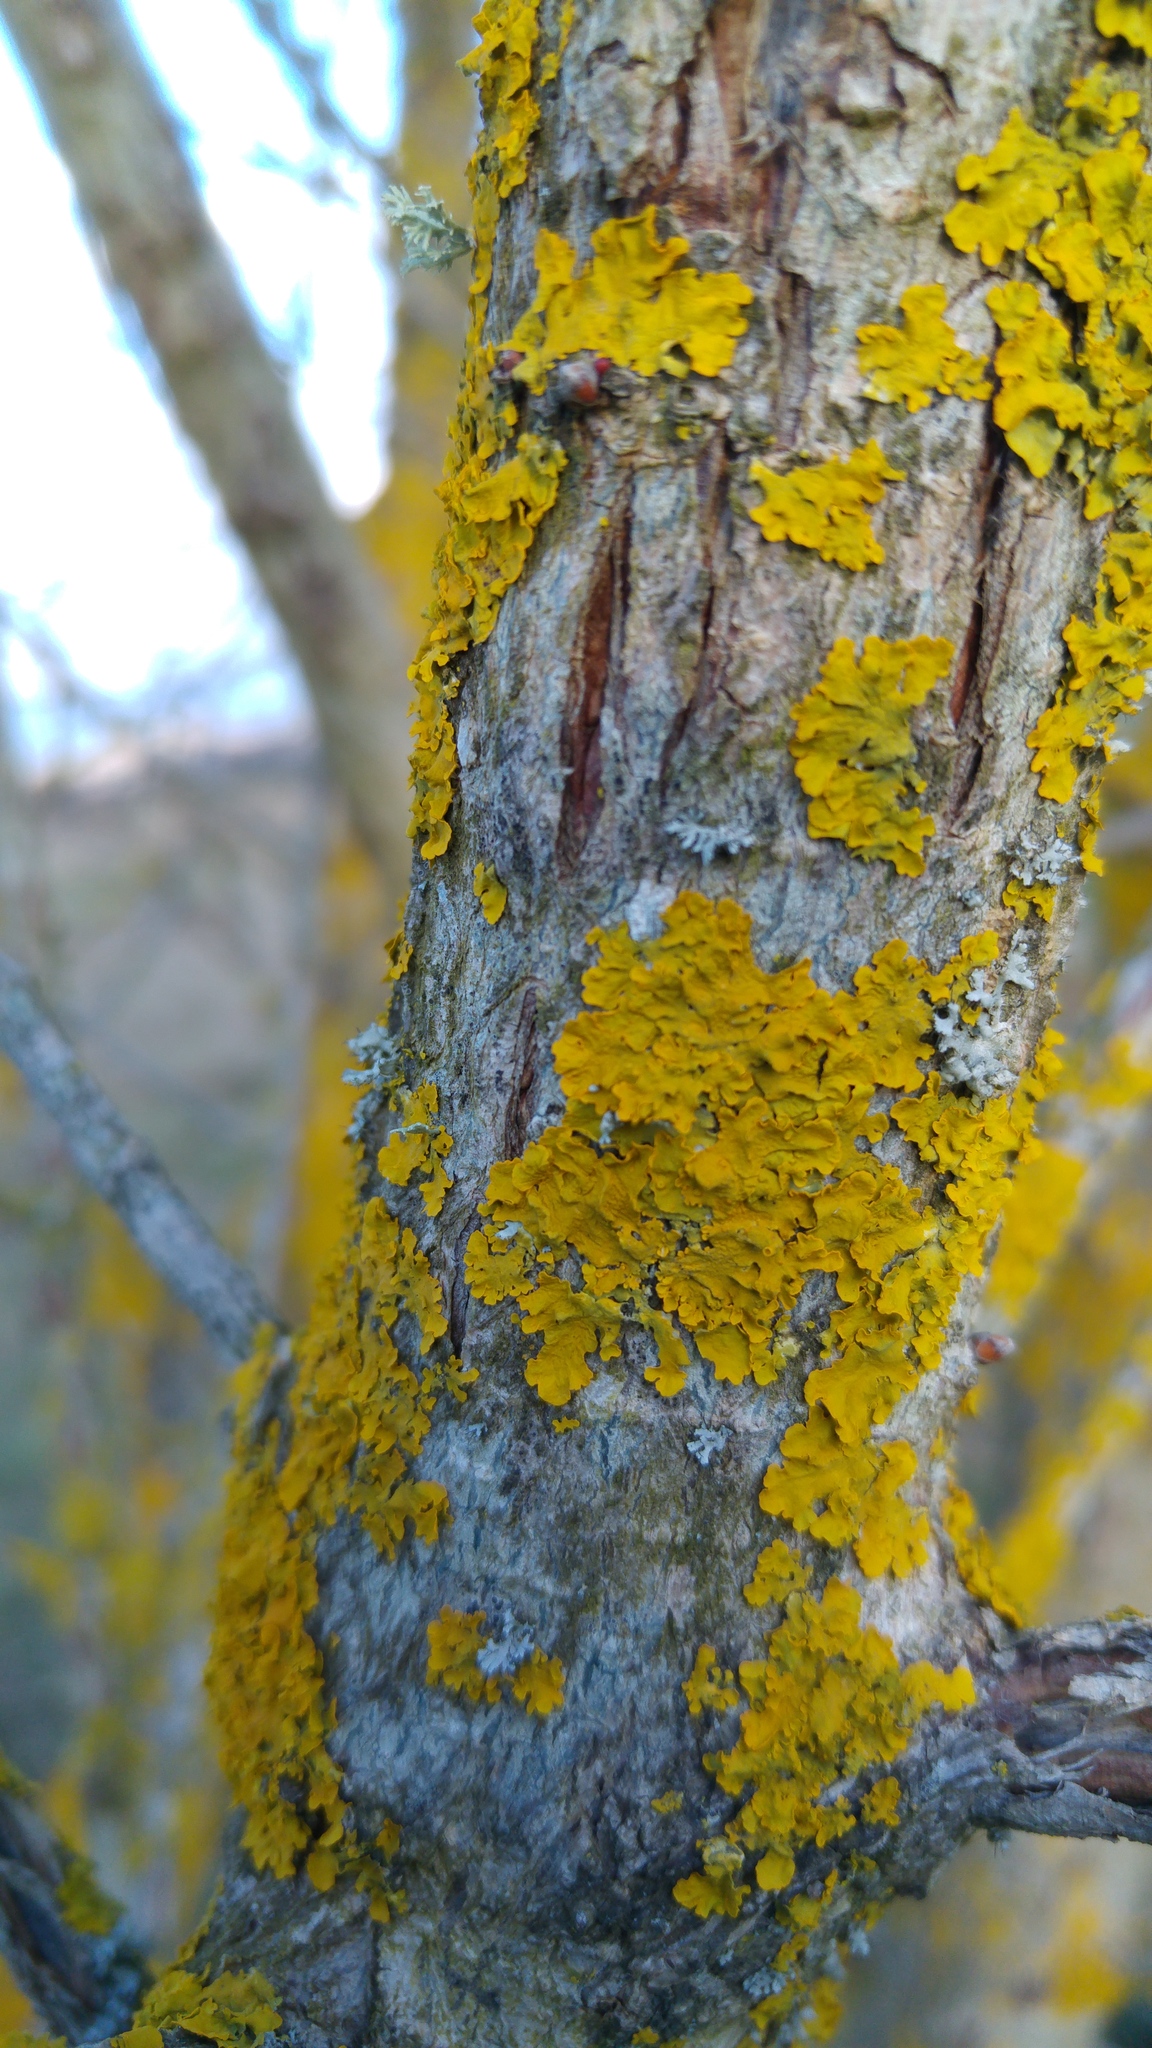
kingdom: Fungi
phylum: Ascomycota
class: Lecanoromycetes
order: Teloschistales
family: Teloschistaceae
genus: Xanthoria
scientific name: Xanthoria parietina
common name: Common orange lichen
